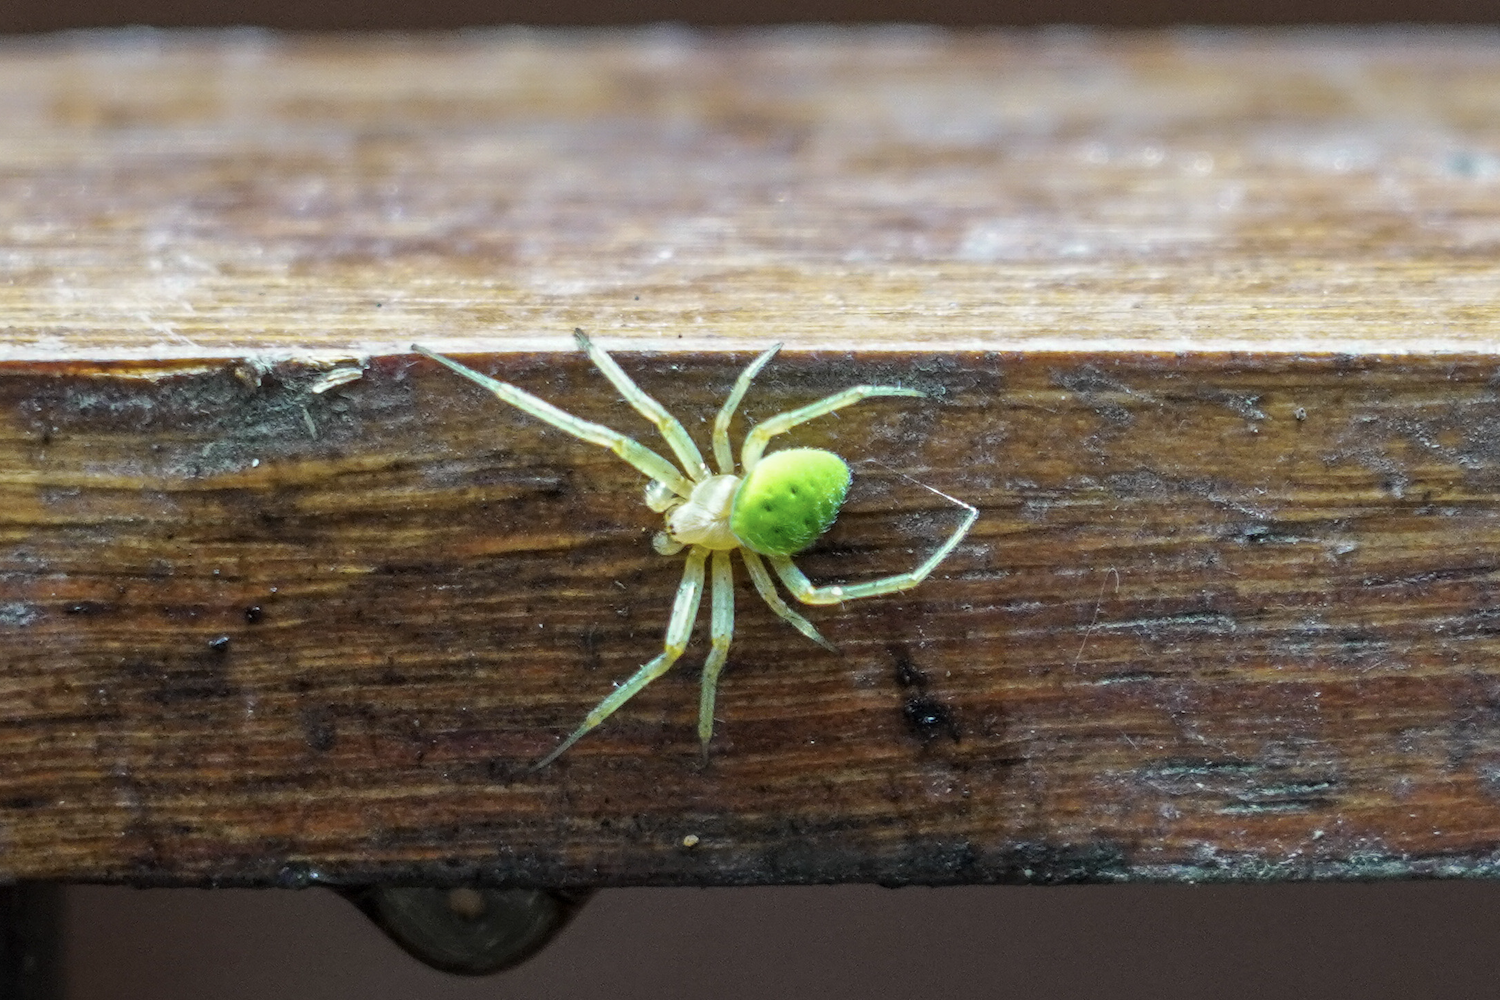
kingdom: Animalia
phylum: Arthropoda
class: Arachnida
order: Araneae
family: Araneidae
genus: Neoscona
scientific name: Neoscona scylloides
